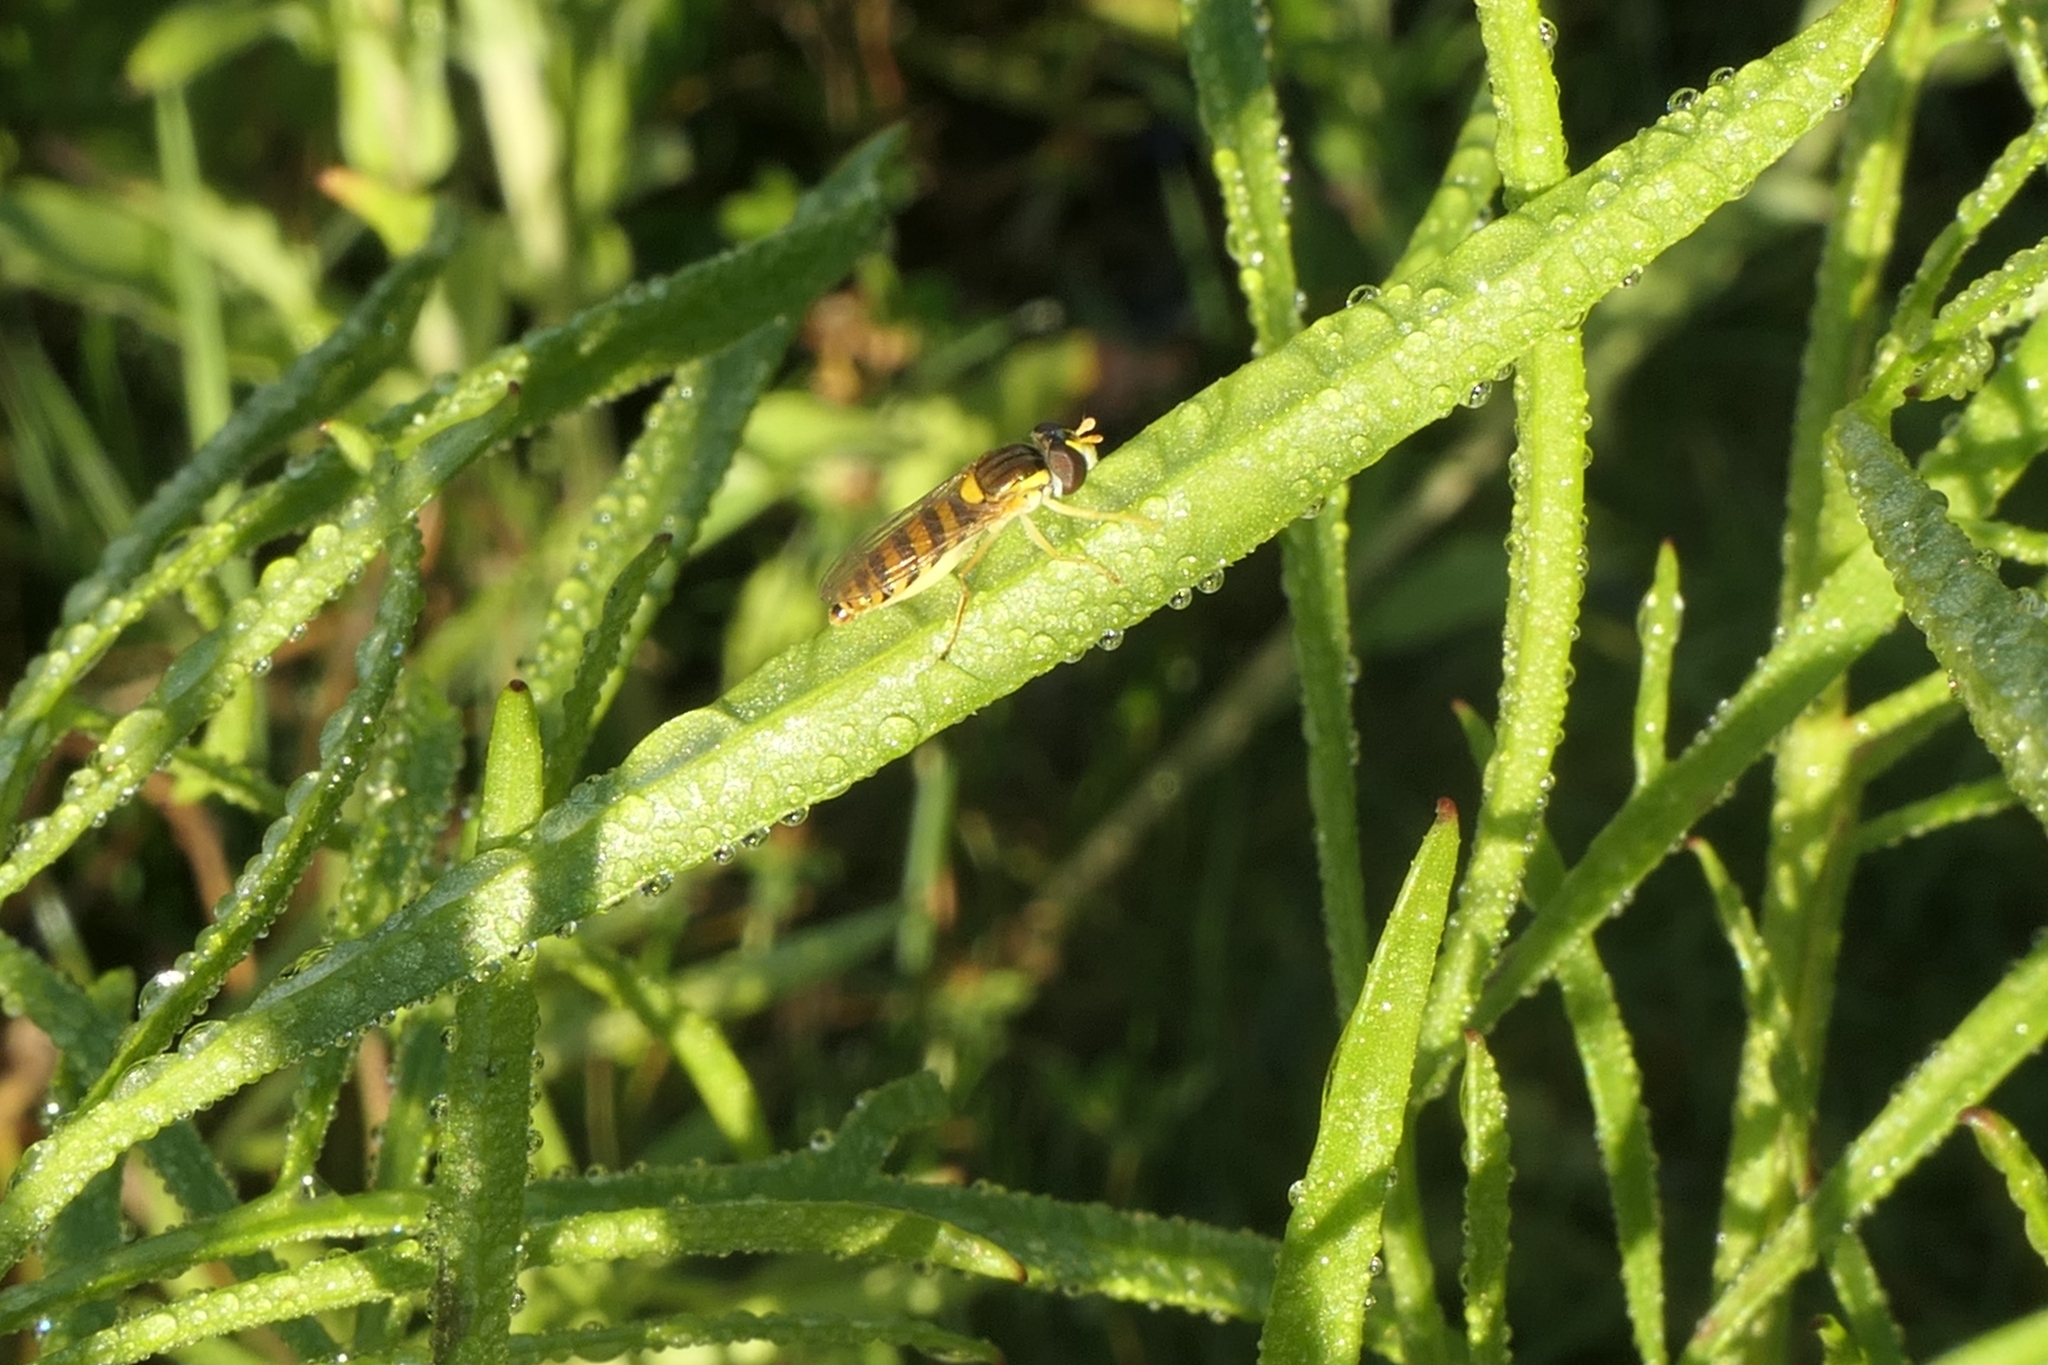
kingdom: Animalia
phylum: Arthropoda
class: Insecta
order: Diptera
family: Syrphidae
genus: Sphaerophoria
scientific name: Sphaerophoria macrogaster
